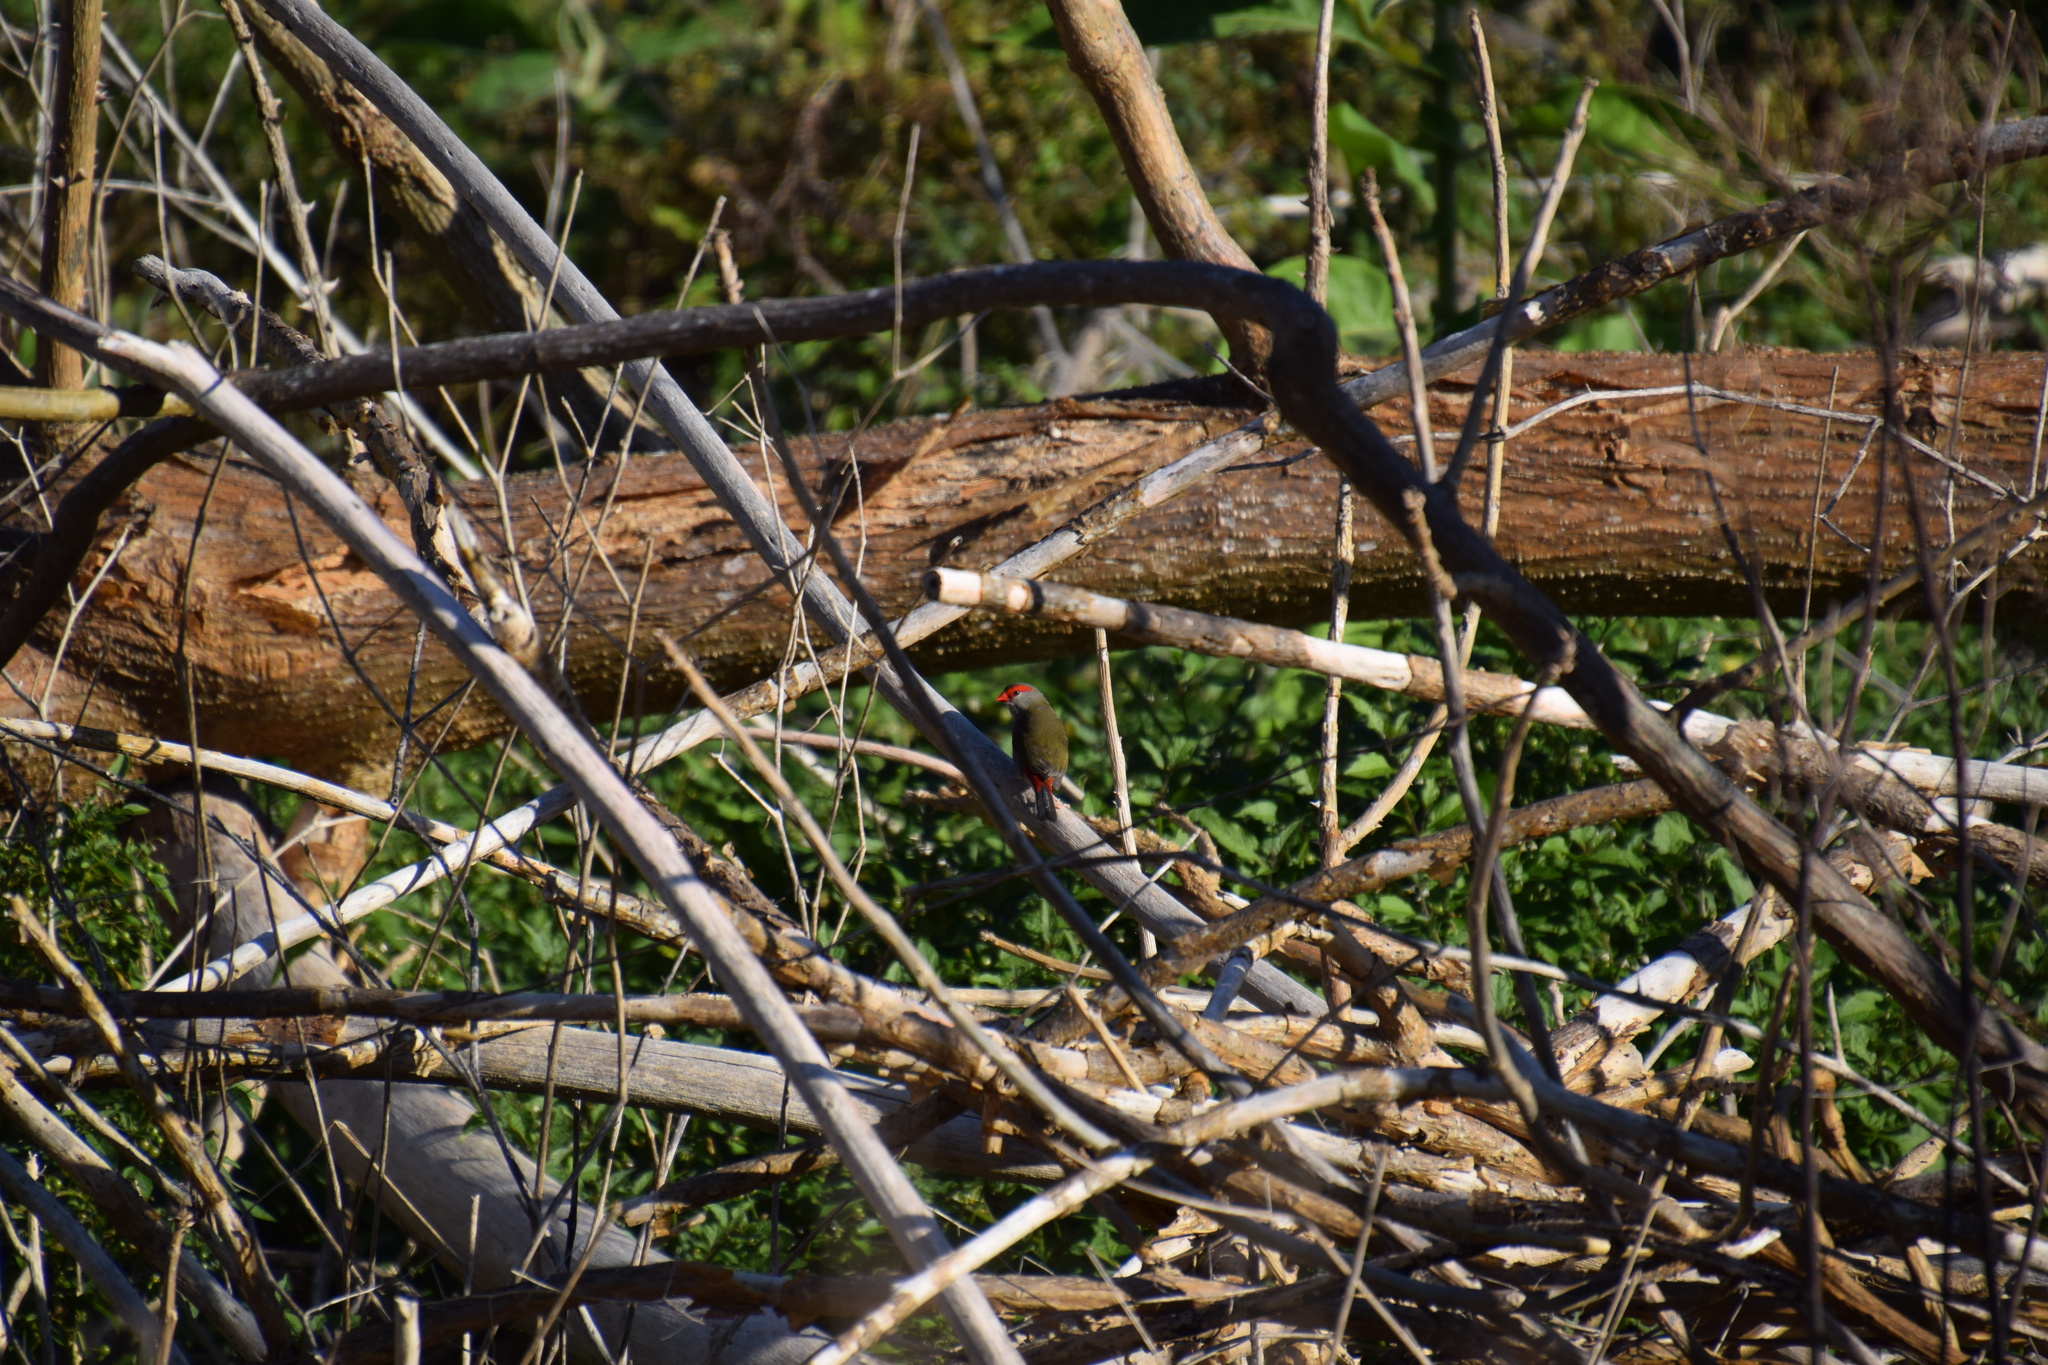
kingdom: Animalia
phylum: Chordata
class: Aves
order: Passeriformes
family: Estrildidae
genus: Neochmia
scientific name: Neochmia temporalis
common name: Red-browed finch
